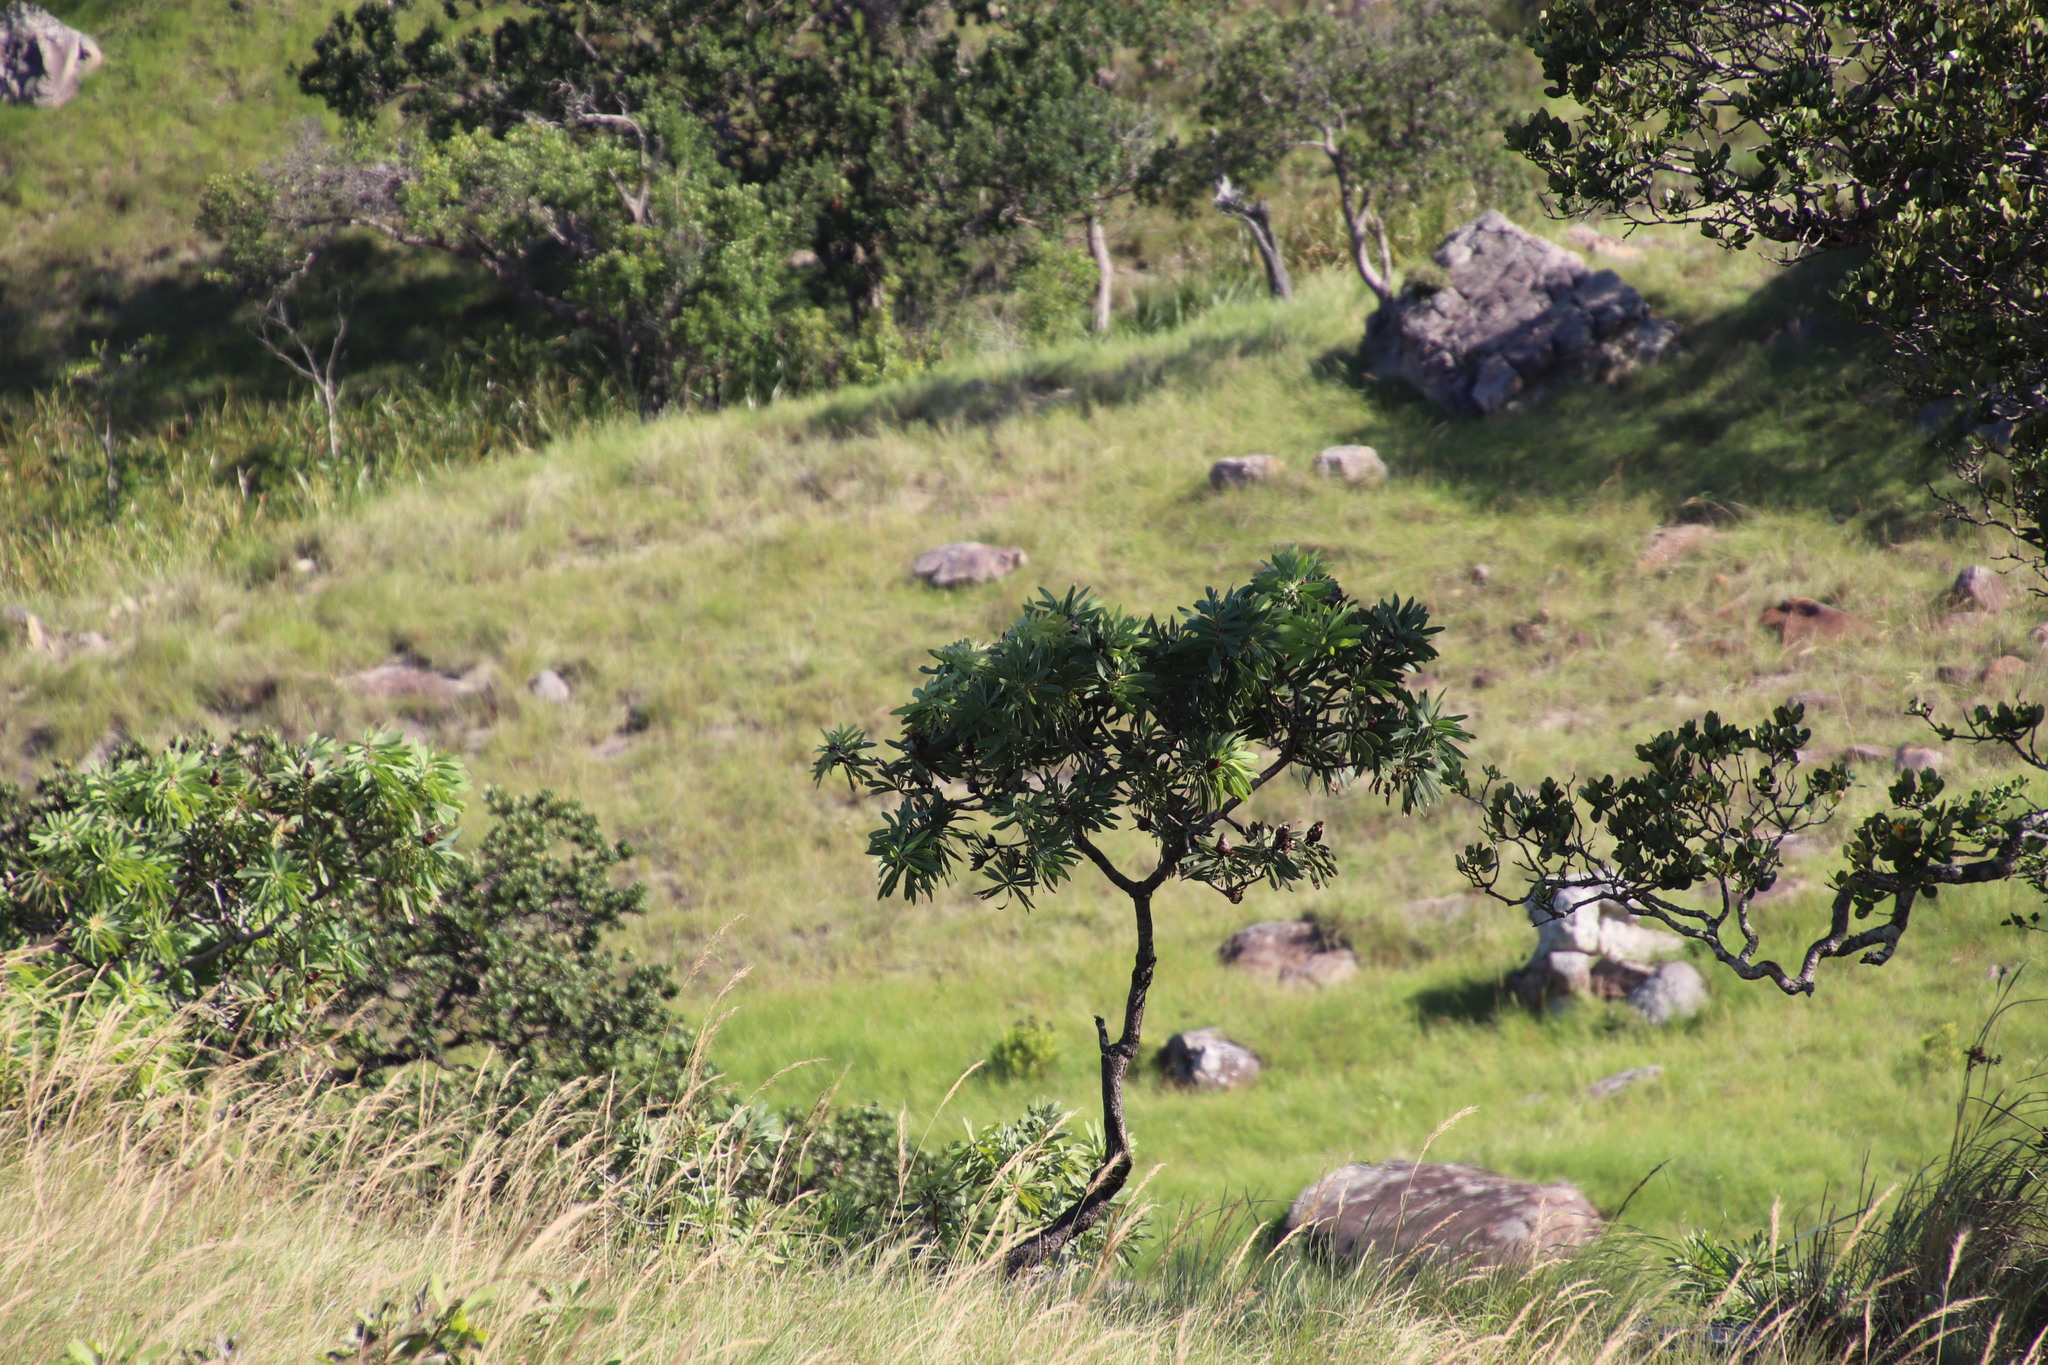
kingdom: Plantae
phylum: Tracheophyta
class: Magnoliopsida
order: Proteales
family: Proteaceae
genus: Protea
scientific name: Protea caffra
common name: Common sugarbush
